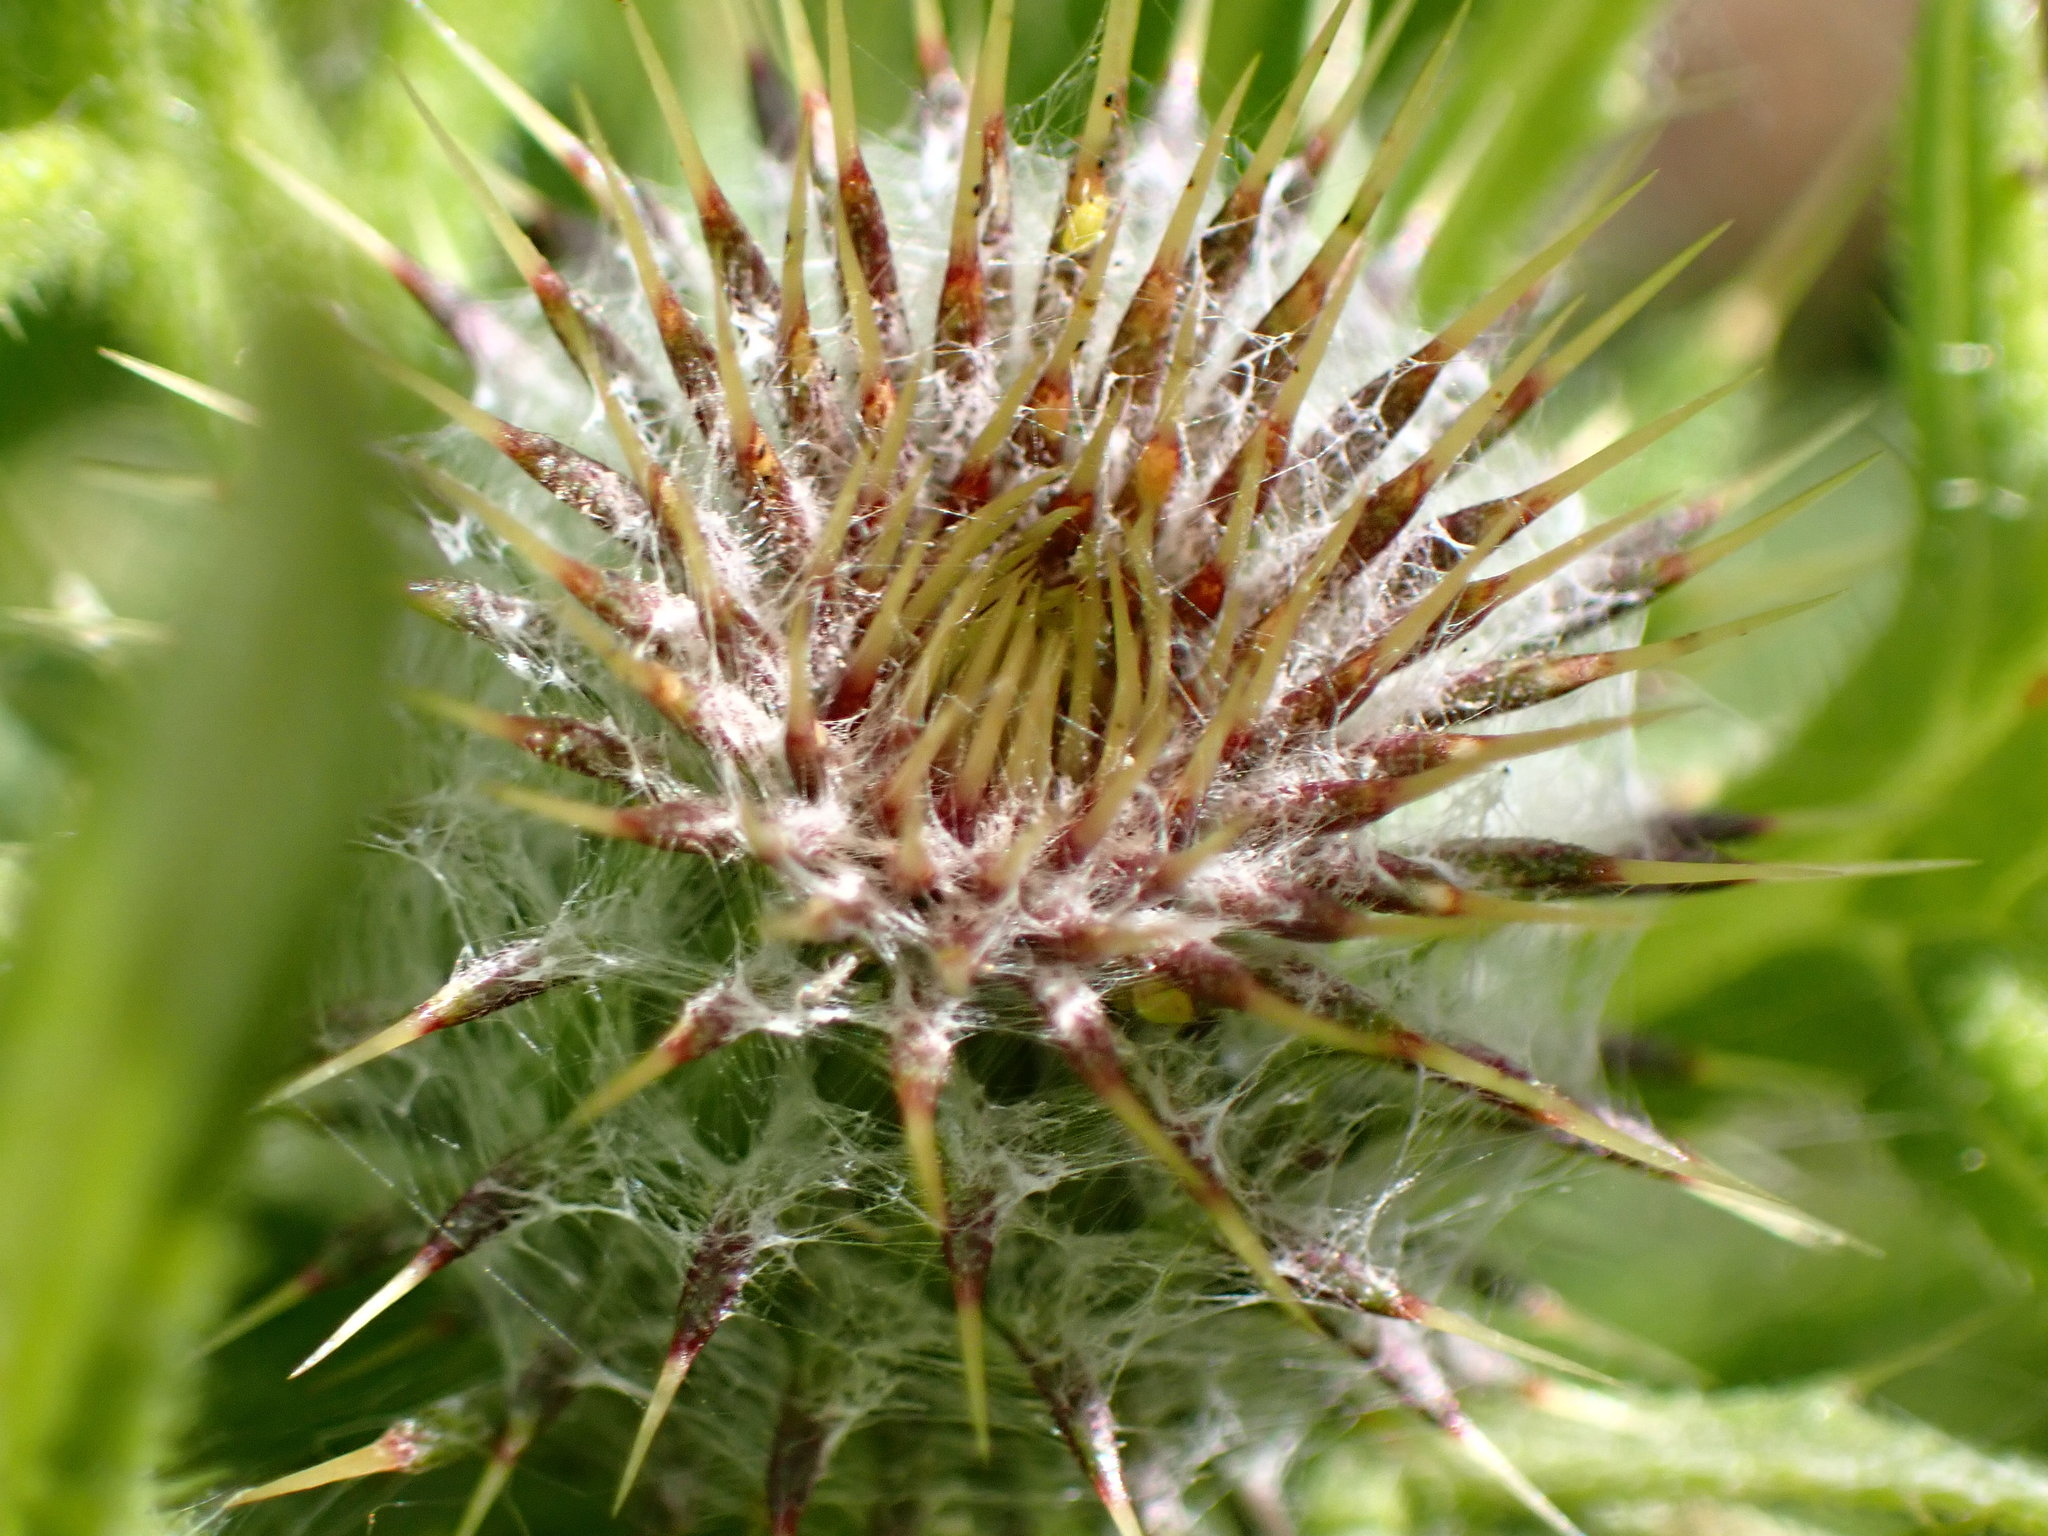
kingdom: Plantae
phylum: Tracheophyta
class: Magnoliopsida
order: Asterales
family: Asteraceae
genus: Cirsium
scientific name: Cirsium brevistylum
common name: Indian thistle
